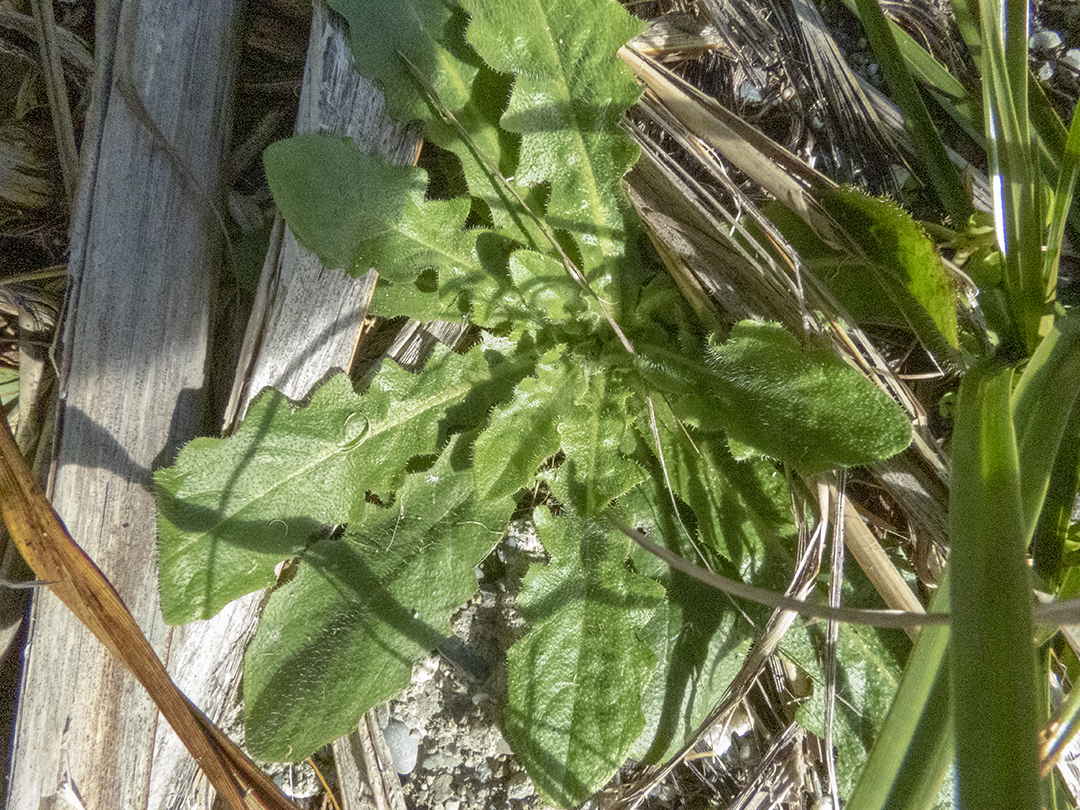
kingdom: Plantae
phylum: Tracheophyta
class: Magnoliopsida
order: Asterales
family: Asteraceae
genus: Hypochaeris
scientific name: Hypochaeris radicata
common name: Flatweed
